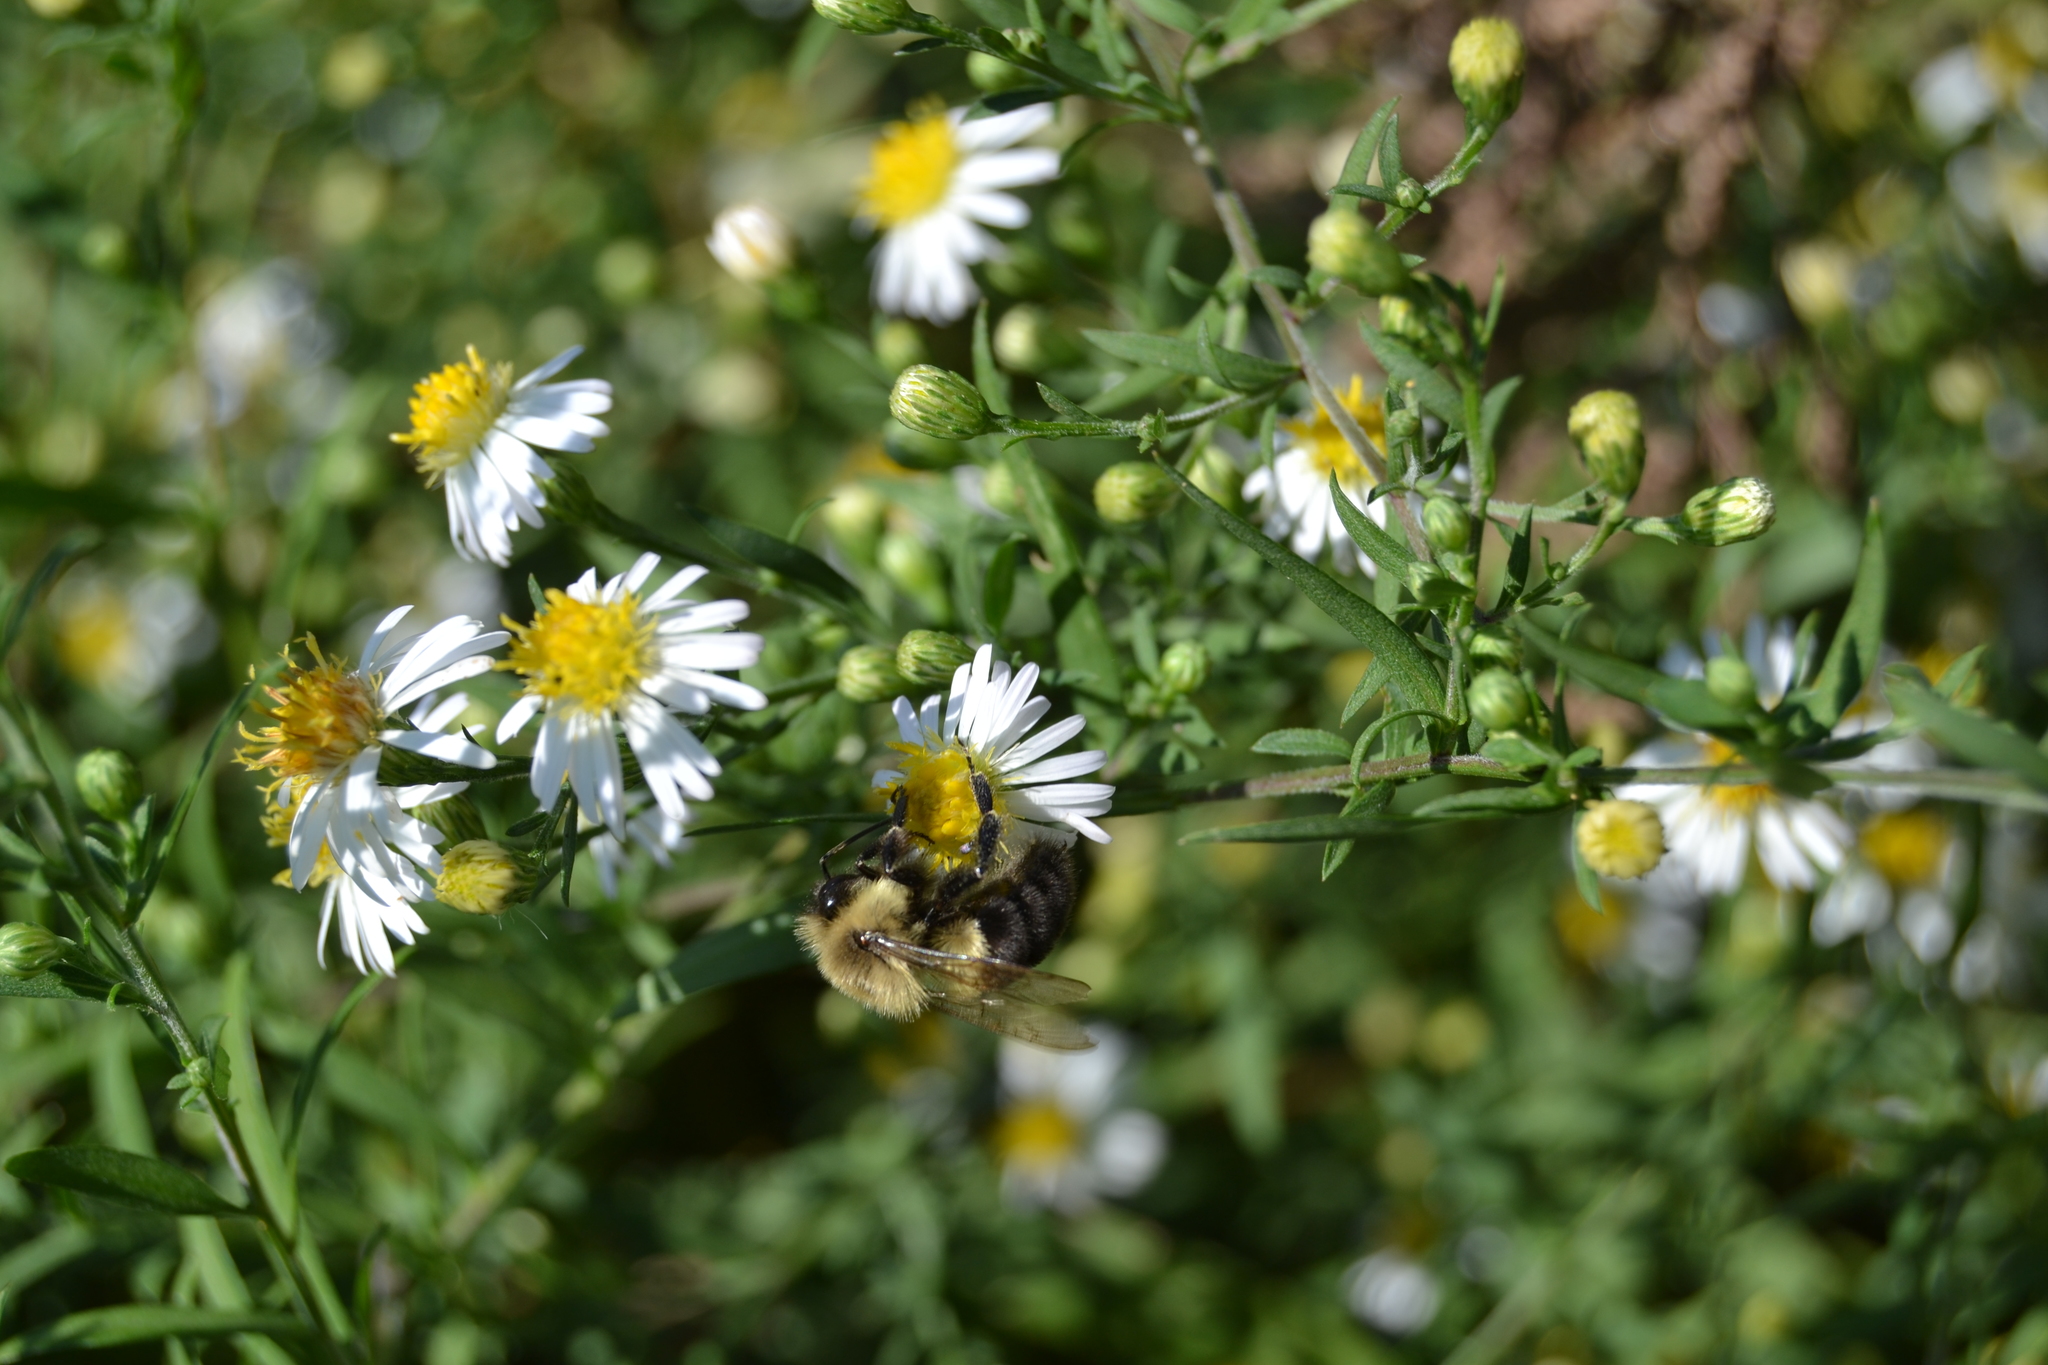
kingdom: Animalia
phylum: Arthropoda
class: Insecta
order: Hymenoptera
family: Apidae
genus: Bombus
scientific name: Bombus impatiens
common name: Common eastern bumble bee
